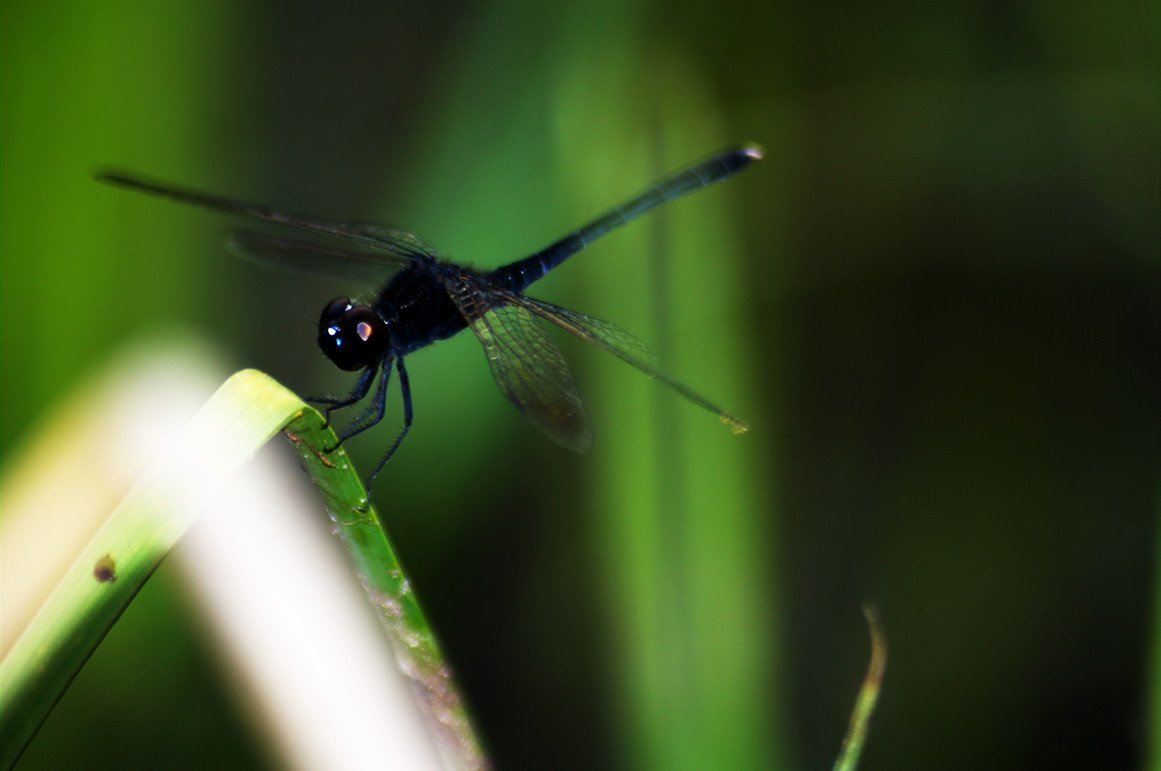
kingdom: Animalia
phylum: Arthropoda
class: Insecta
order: Odonata
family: Libellulidae
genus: Diplacodes
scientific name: Diplacodes lefebvrii
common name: Black percher
